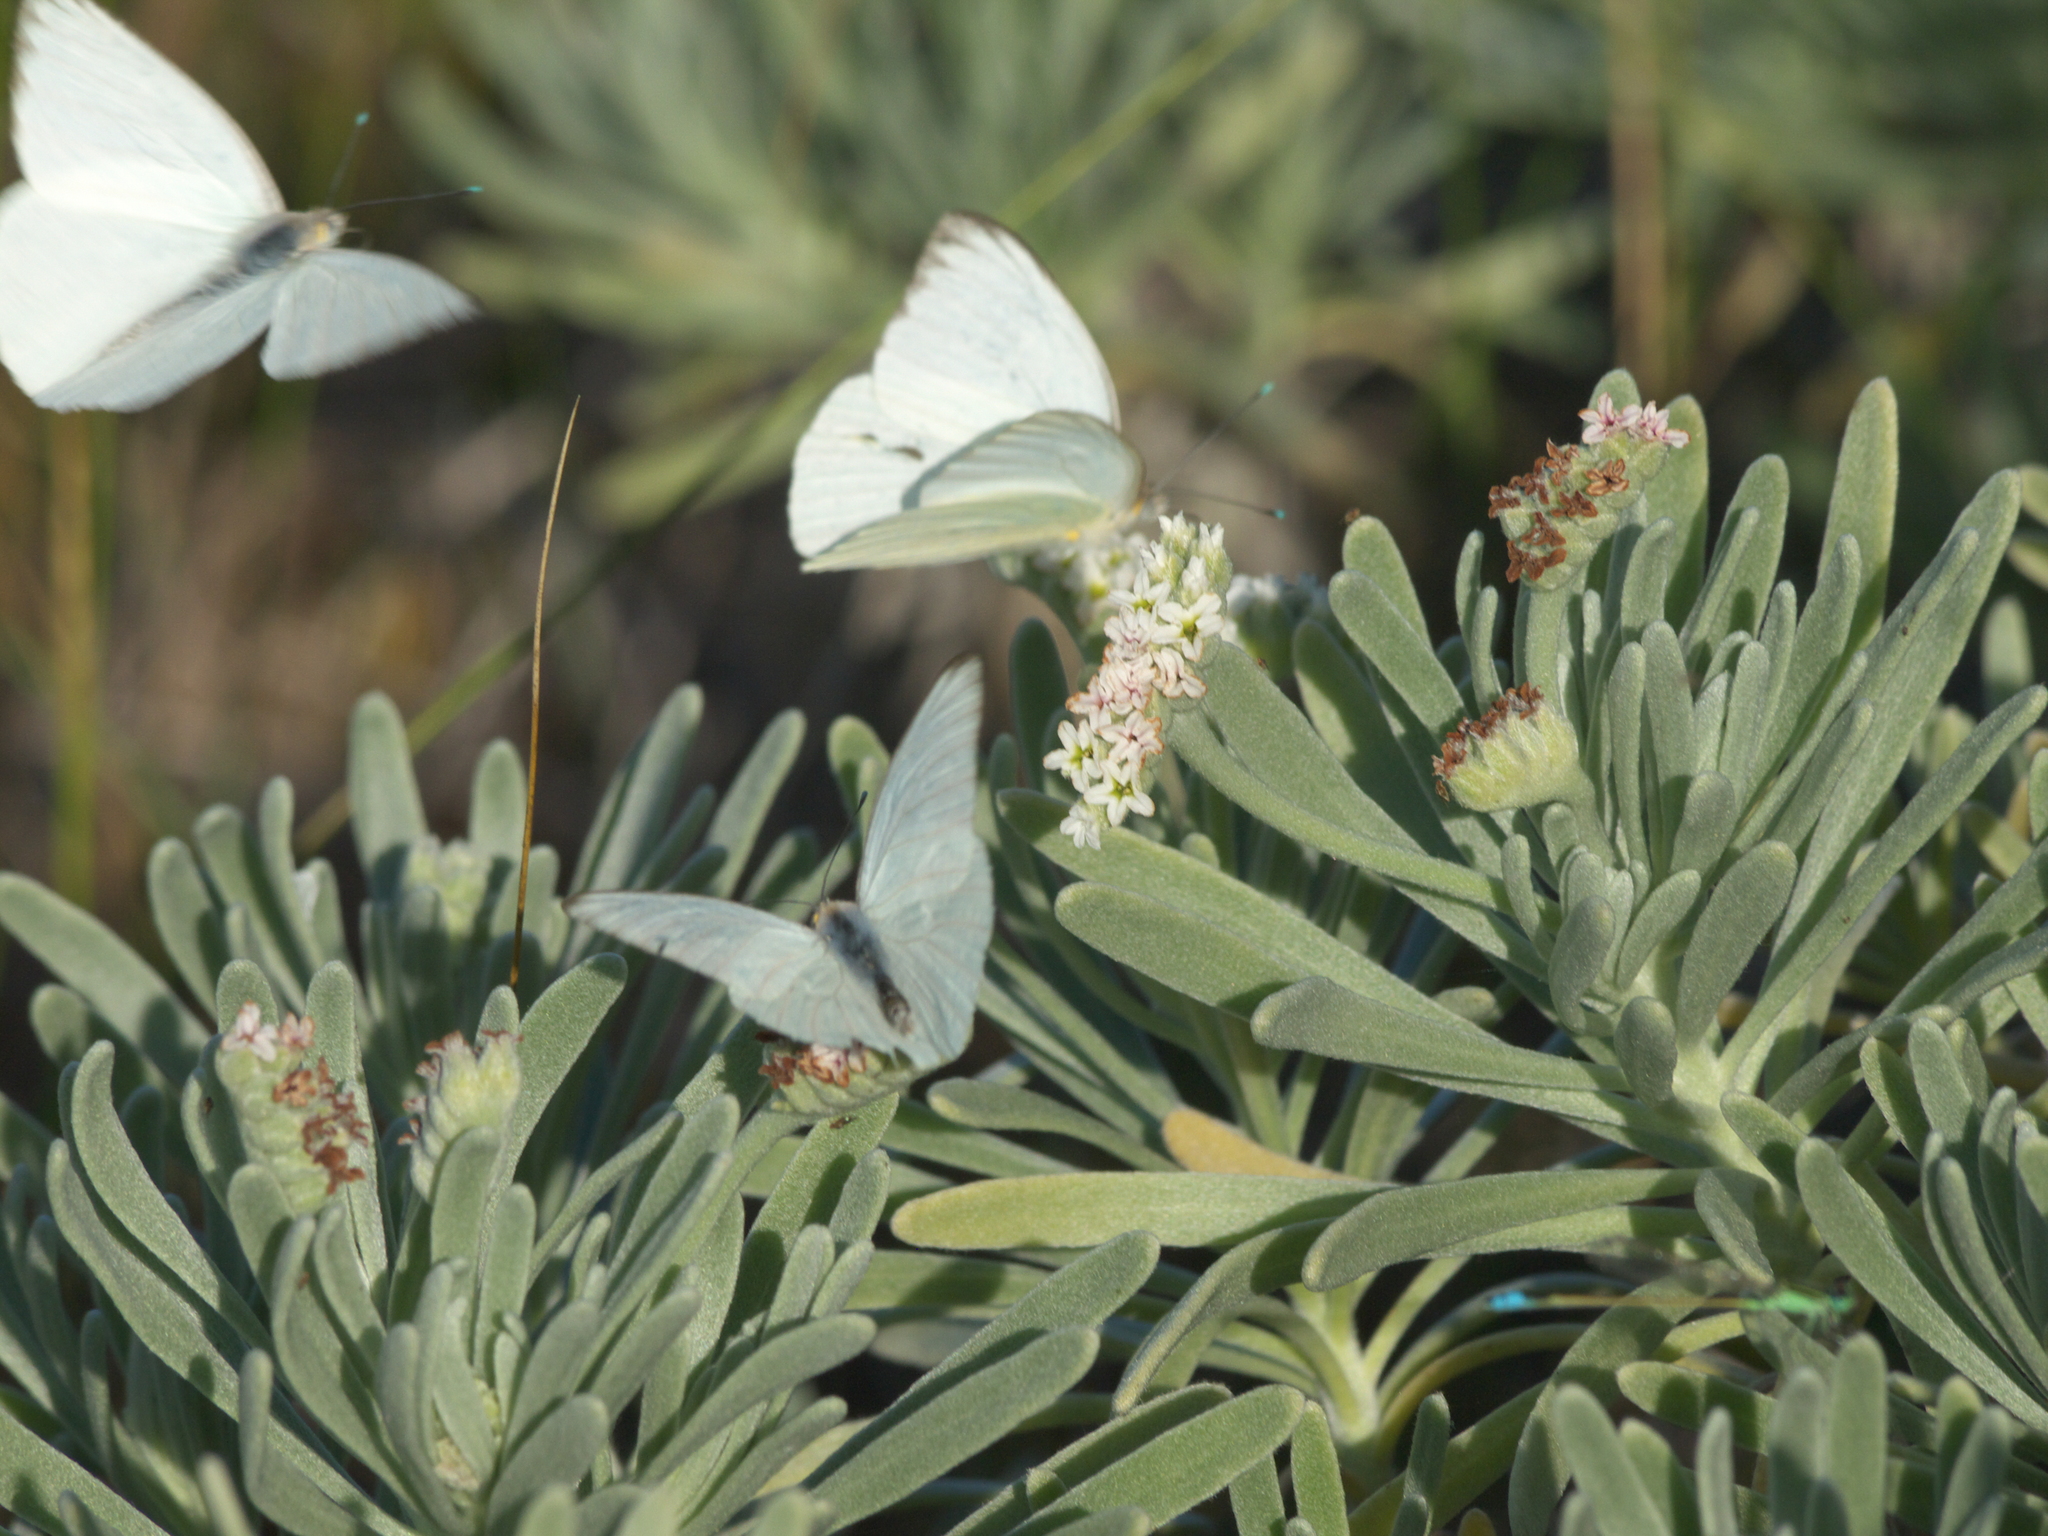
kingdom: Plantae
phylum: Tracheophyta
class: Magnoliopsida
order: Boraginales
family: Heliotropiaceae
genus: Tournefortia
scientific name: Tournefortia gnaphalodes
